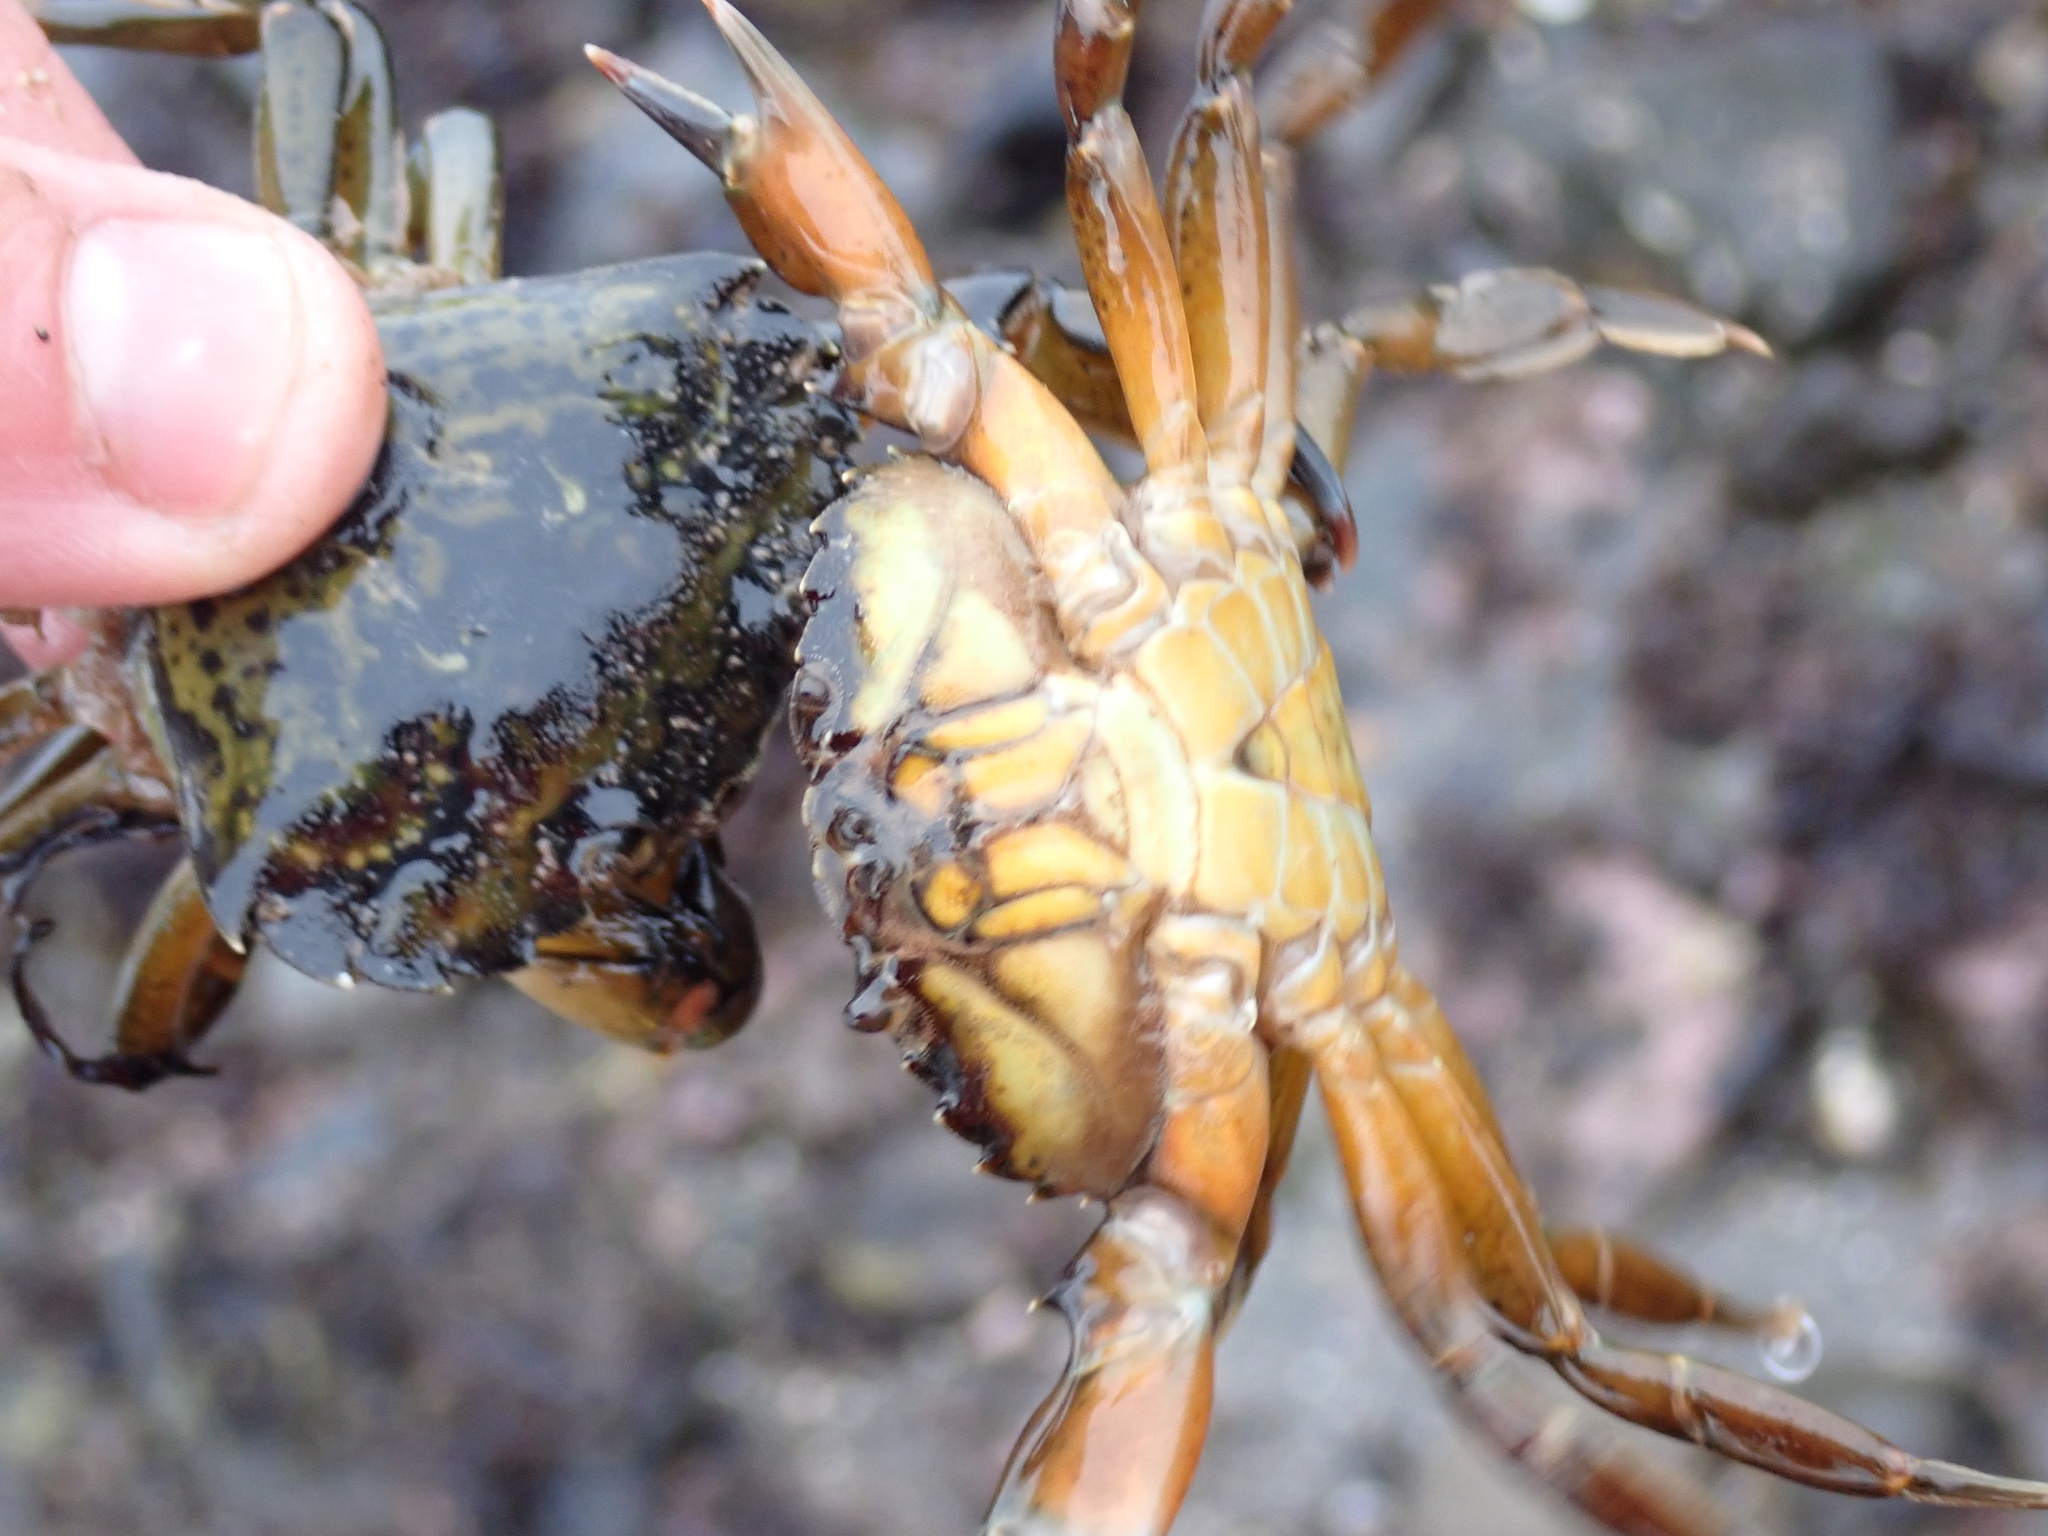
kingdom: Animalia
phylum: Arthropoda
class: Malacostraca
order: Decapoda
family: Carcinidae
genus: Carcinus
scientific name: Carcinus maenas
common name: European green crab
